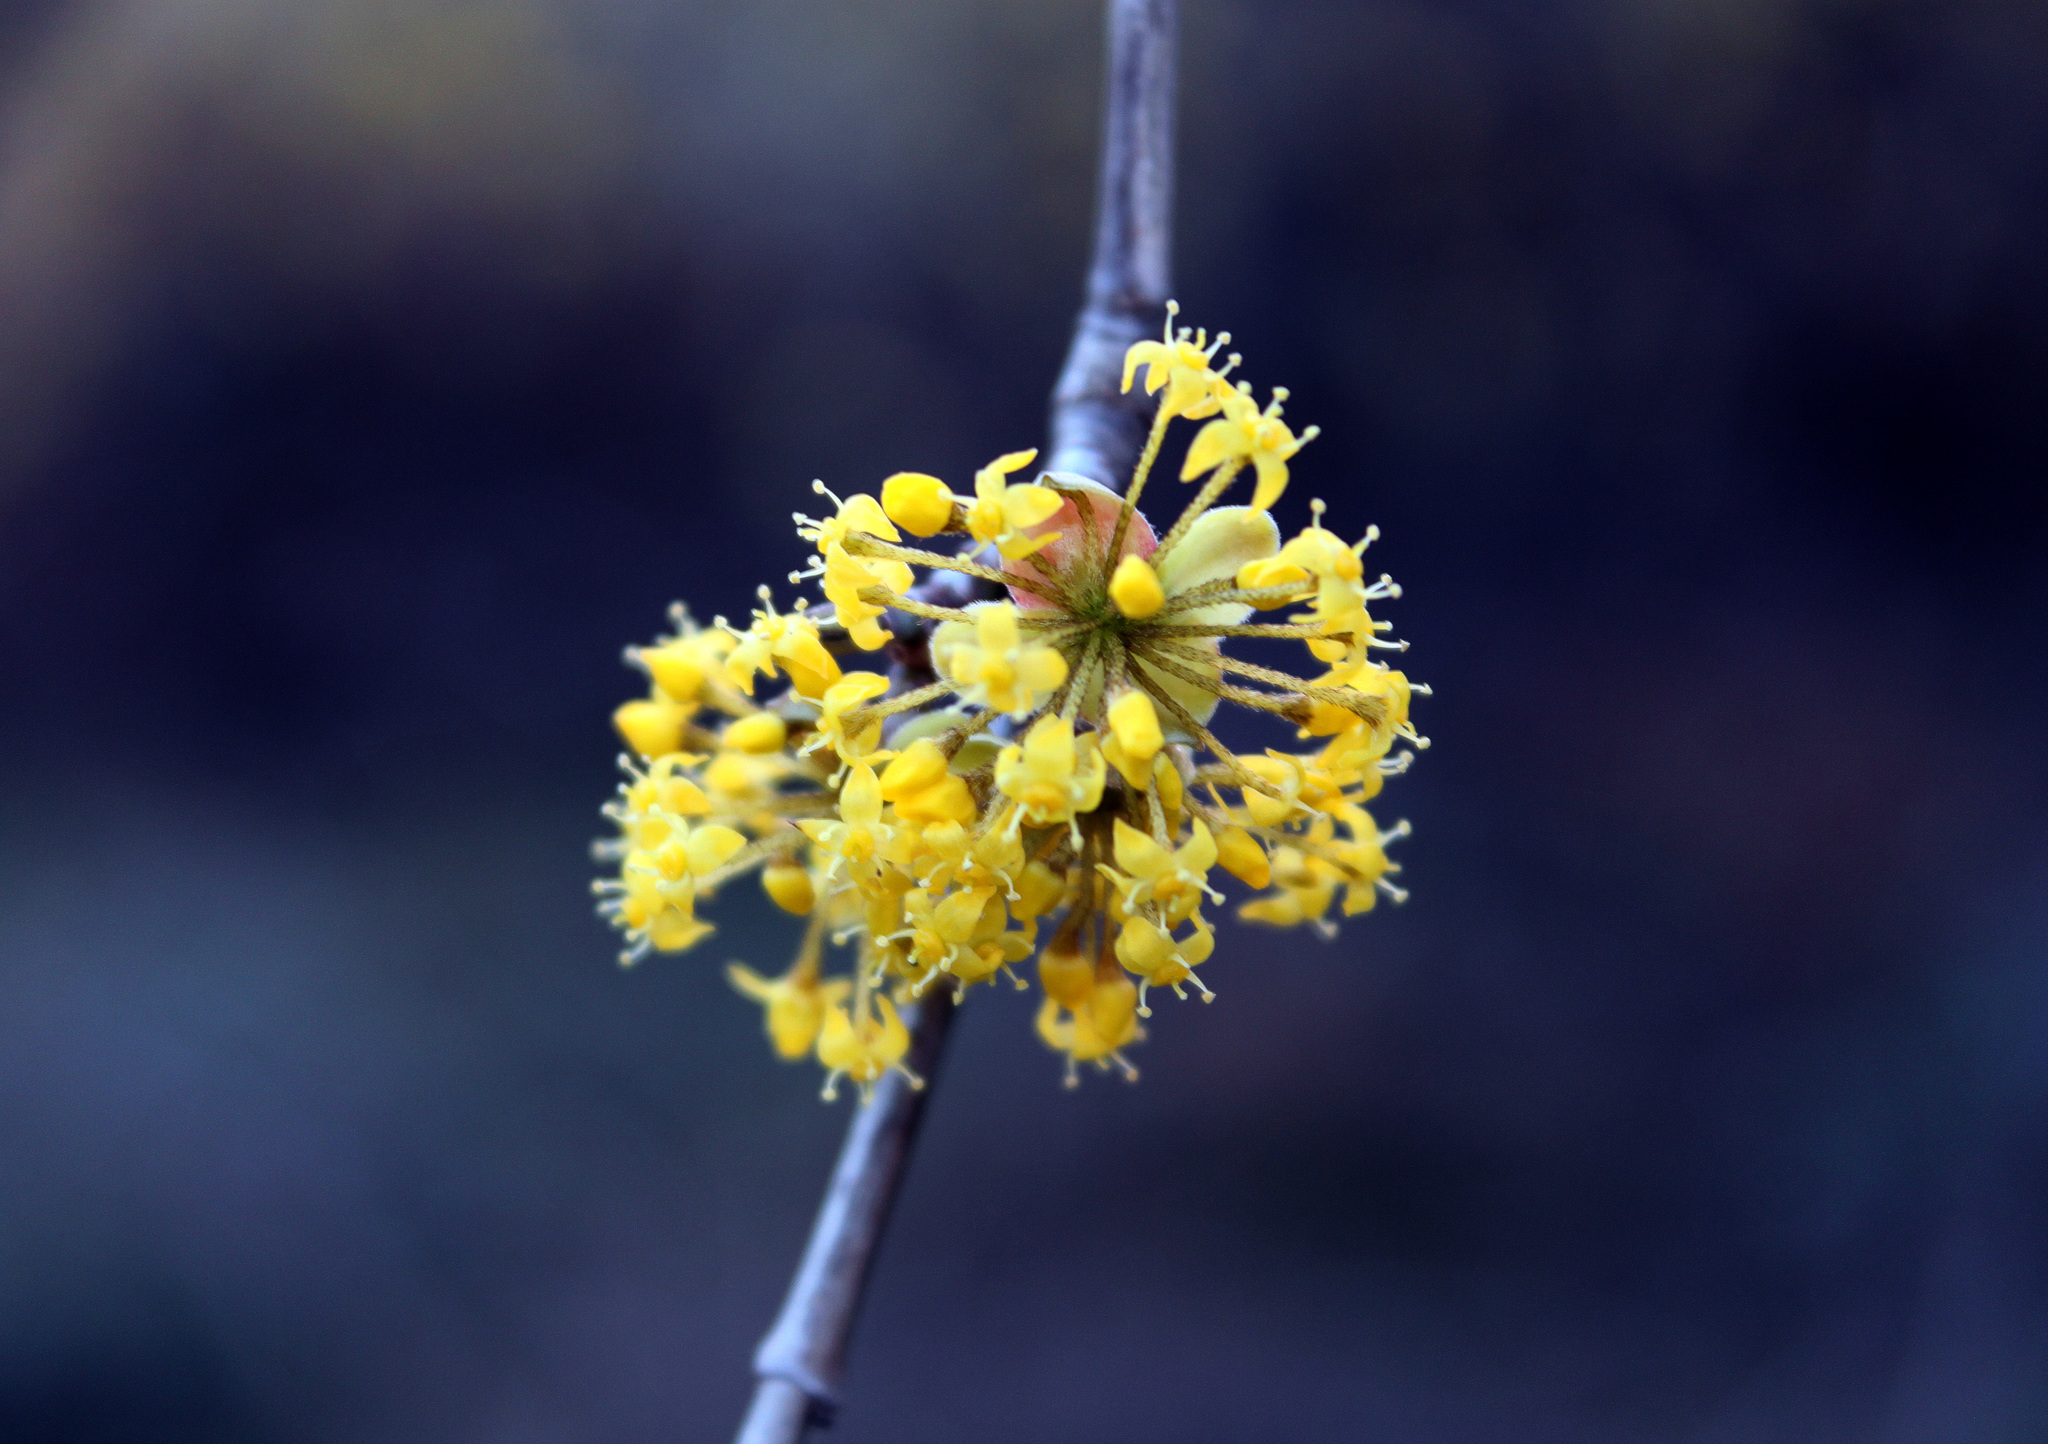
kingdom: Plantae
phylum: Tracheophyta
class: Magnoliopsida
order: Cornales
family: Cornaceae
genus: Cornus
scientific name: Cornus mas
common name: Cornelian-cherry
